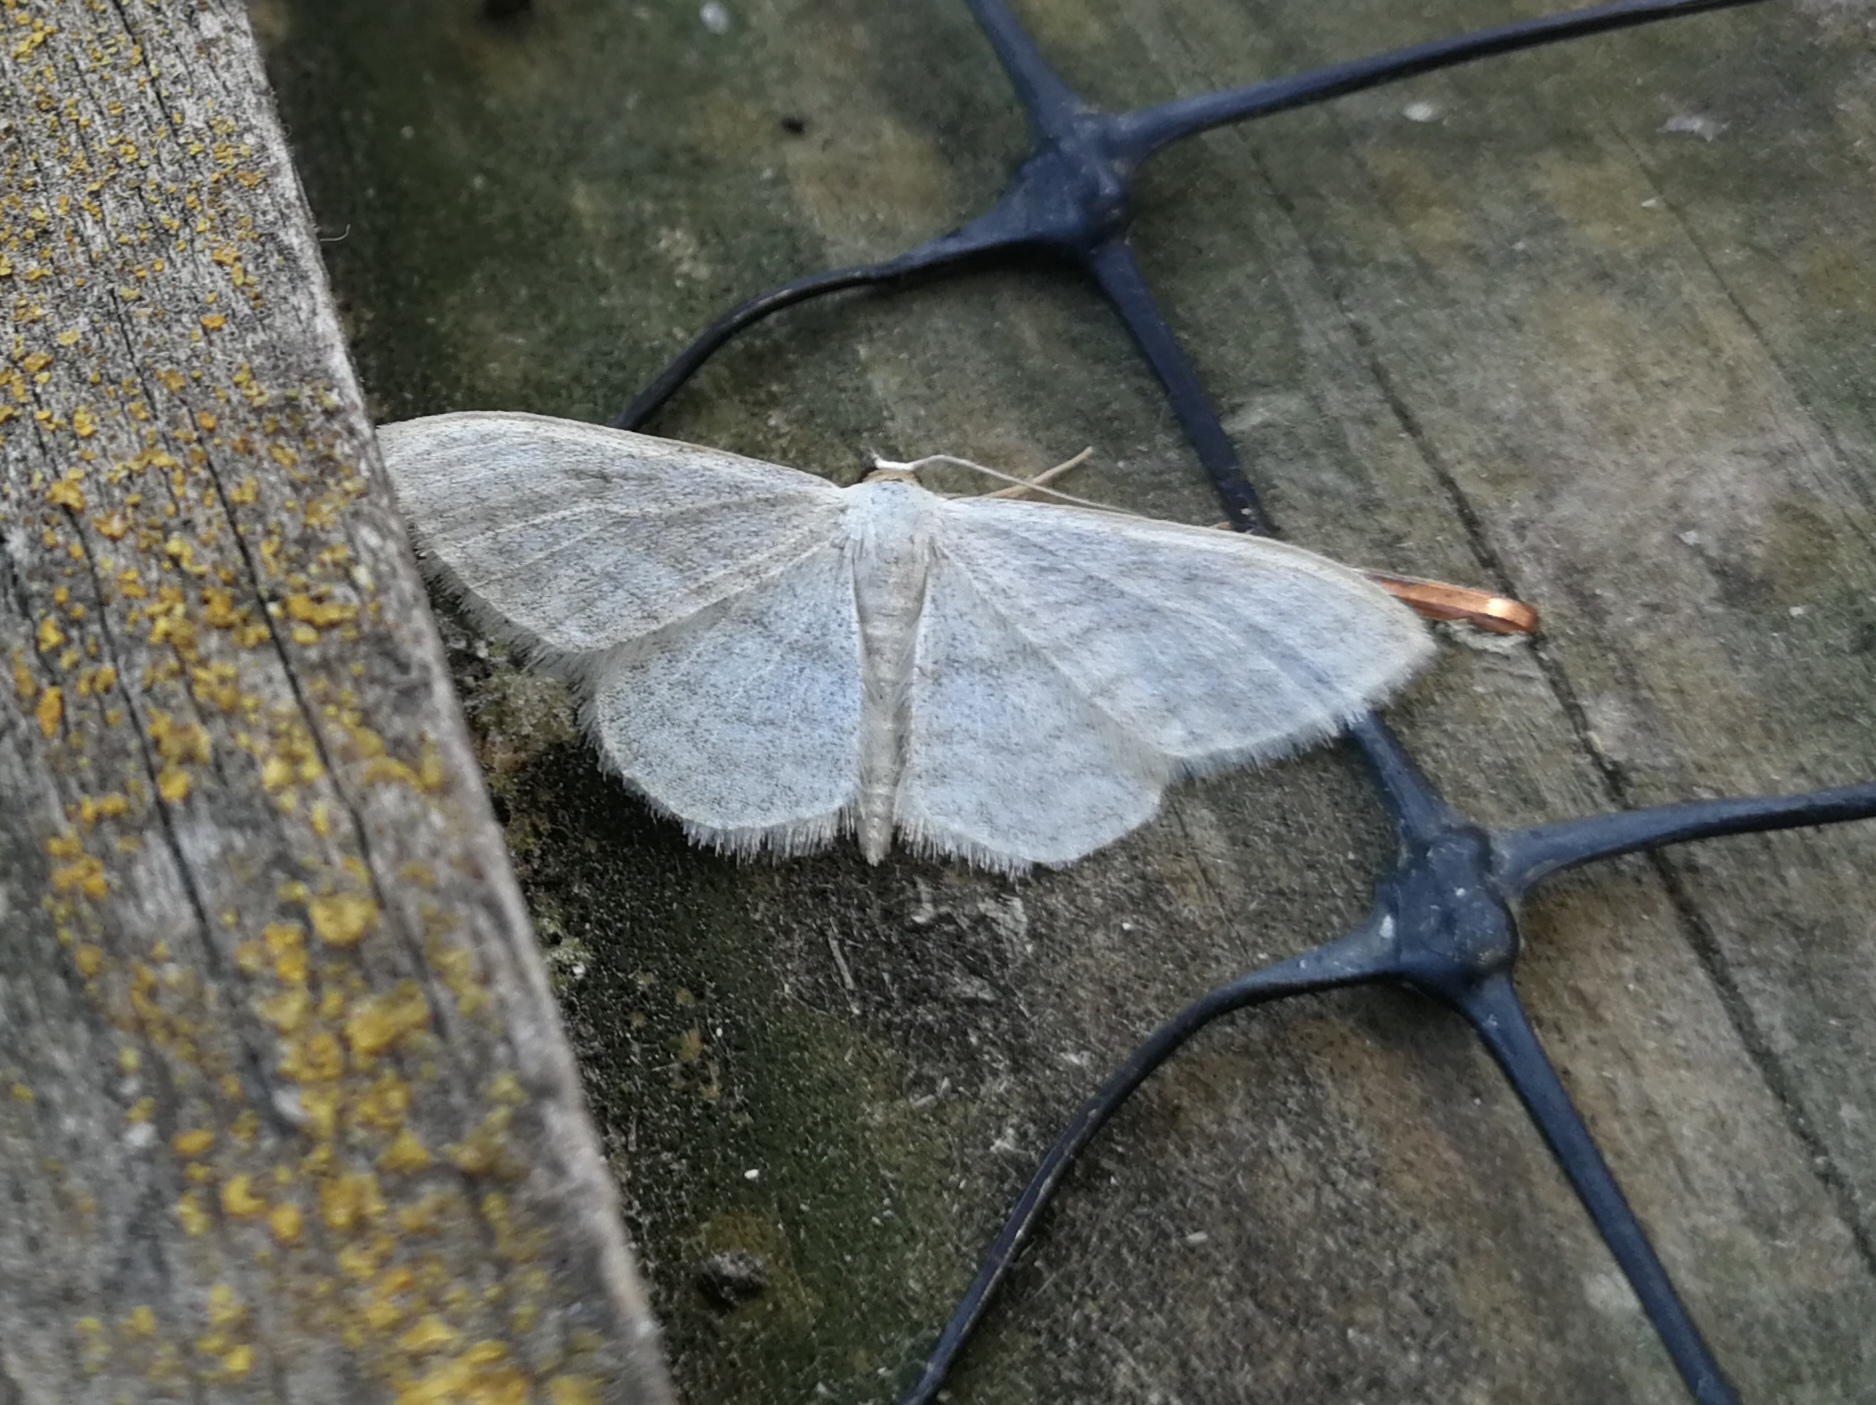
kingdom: Animalia
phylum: Arthropoda
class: Insecta
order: Lepidoptera
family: Geometridae
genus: Idaea
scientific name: Idaea subsericeata
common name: Satin wave
